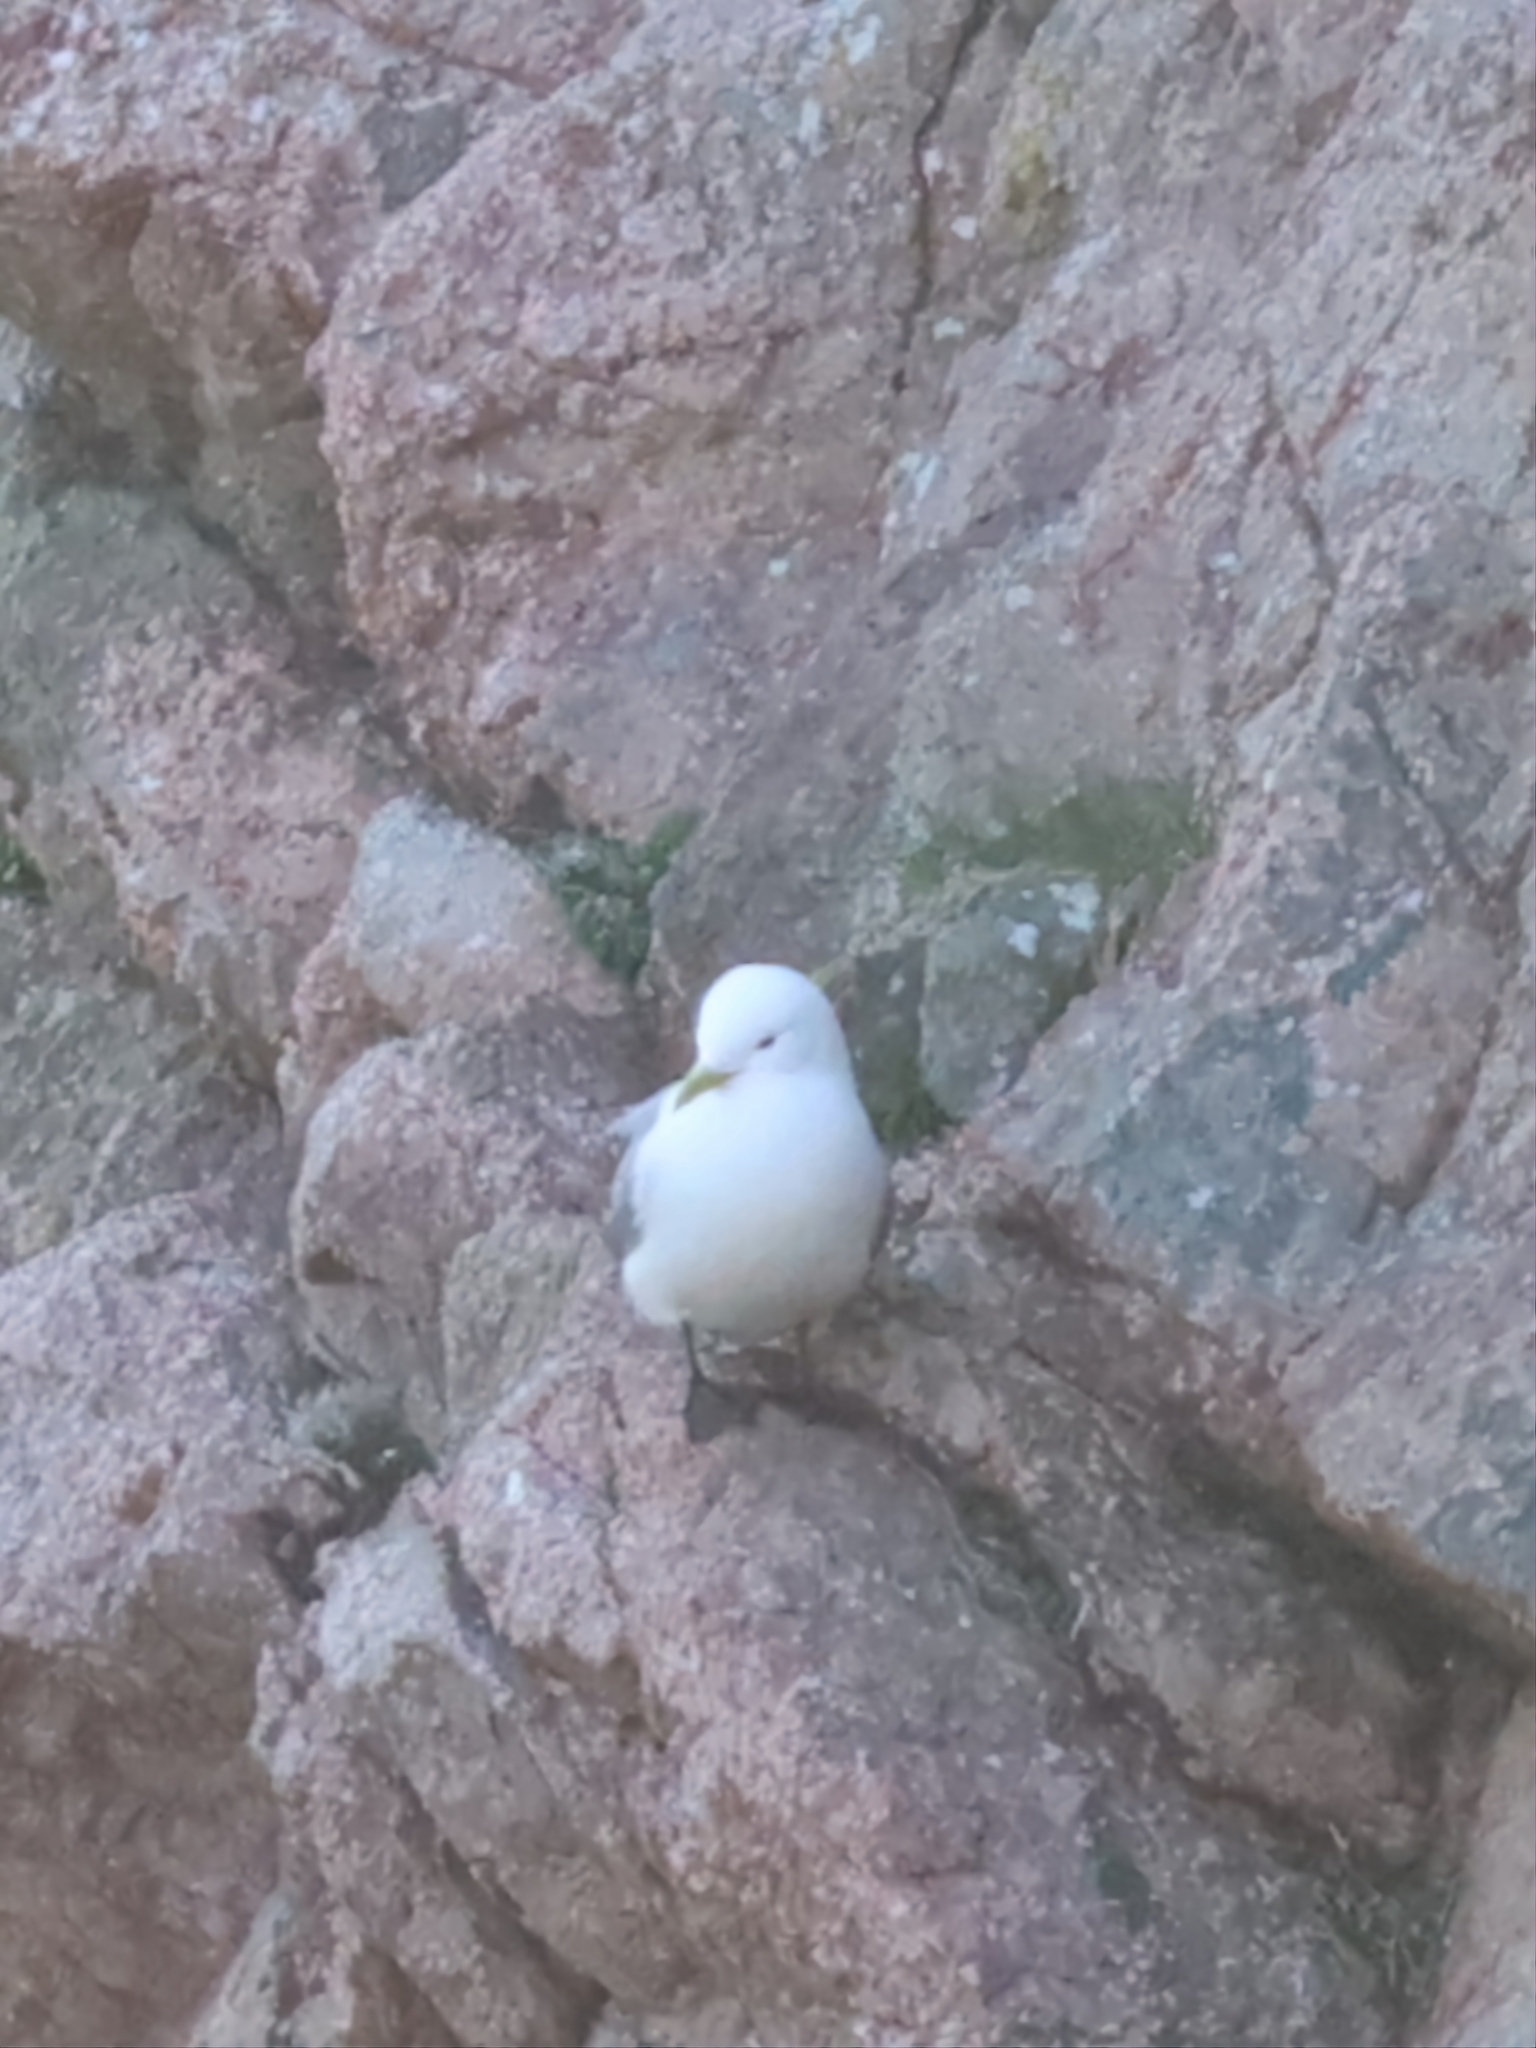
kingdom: Animalia
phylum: Chordata
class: Aves
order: Charadriiformes
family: Laridae
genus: Rissa
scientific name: Rissa tridactyla
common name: Black-legged kittiwake
